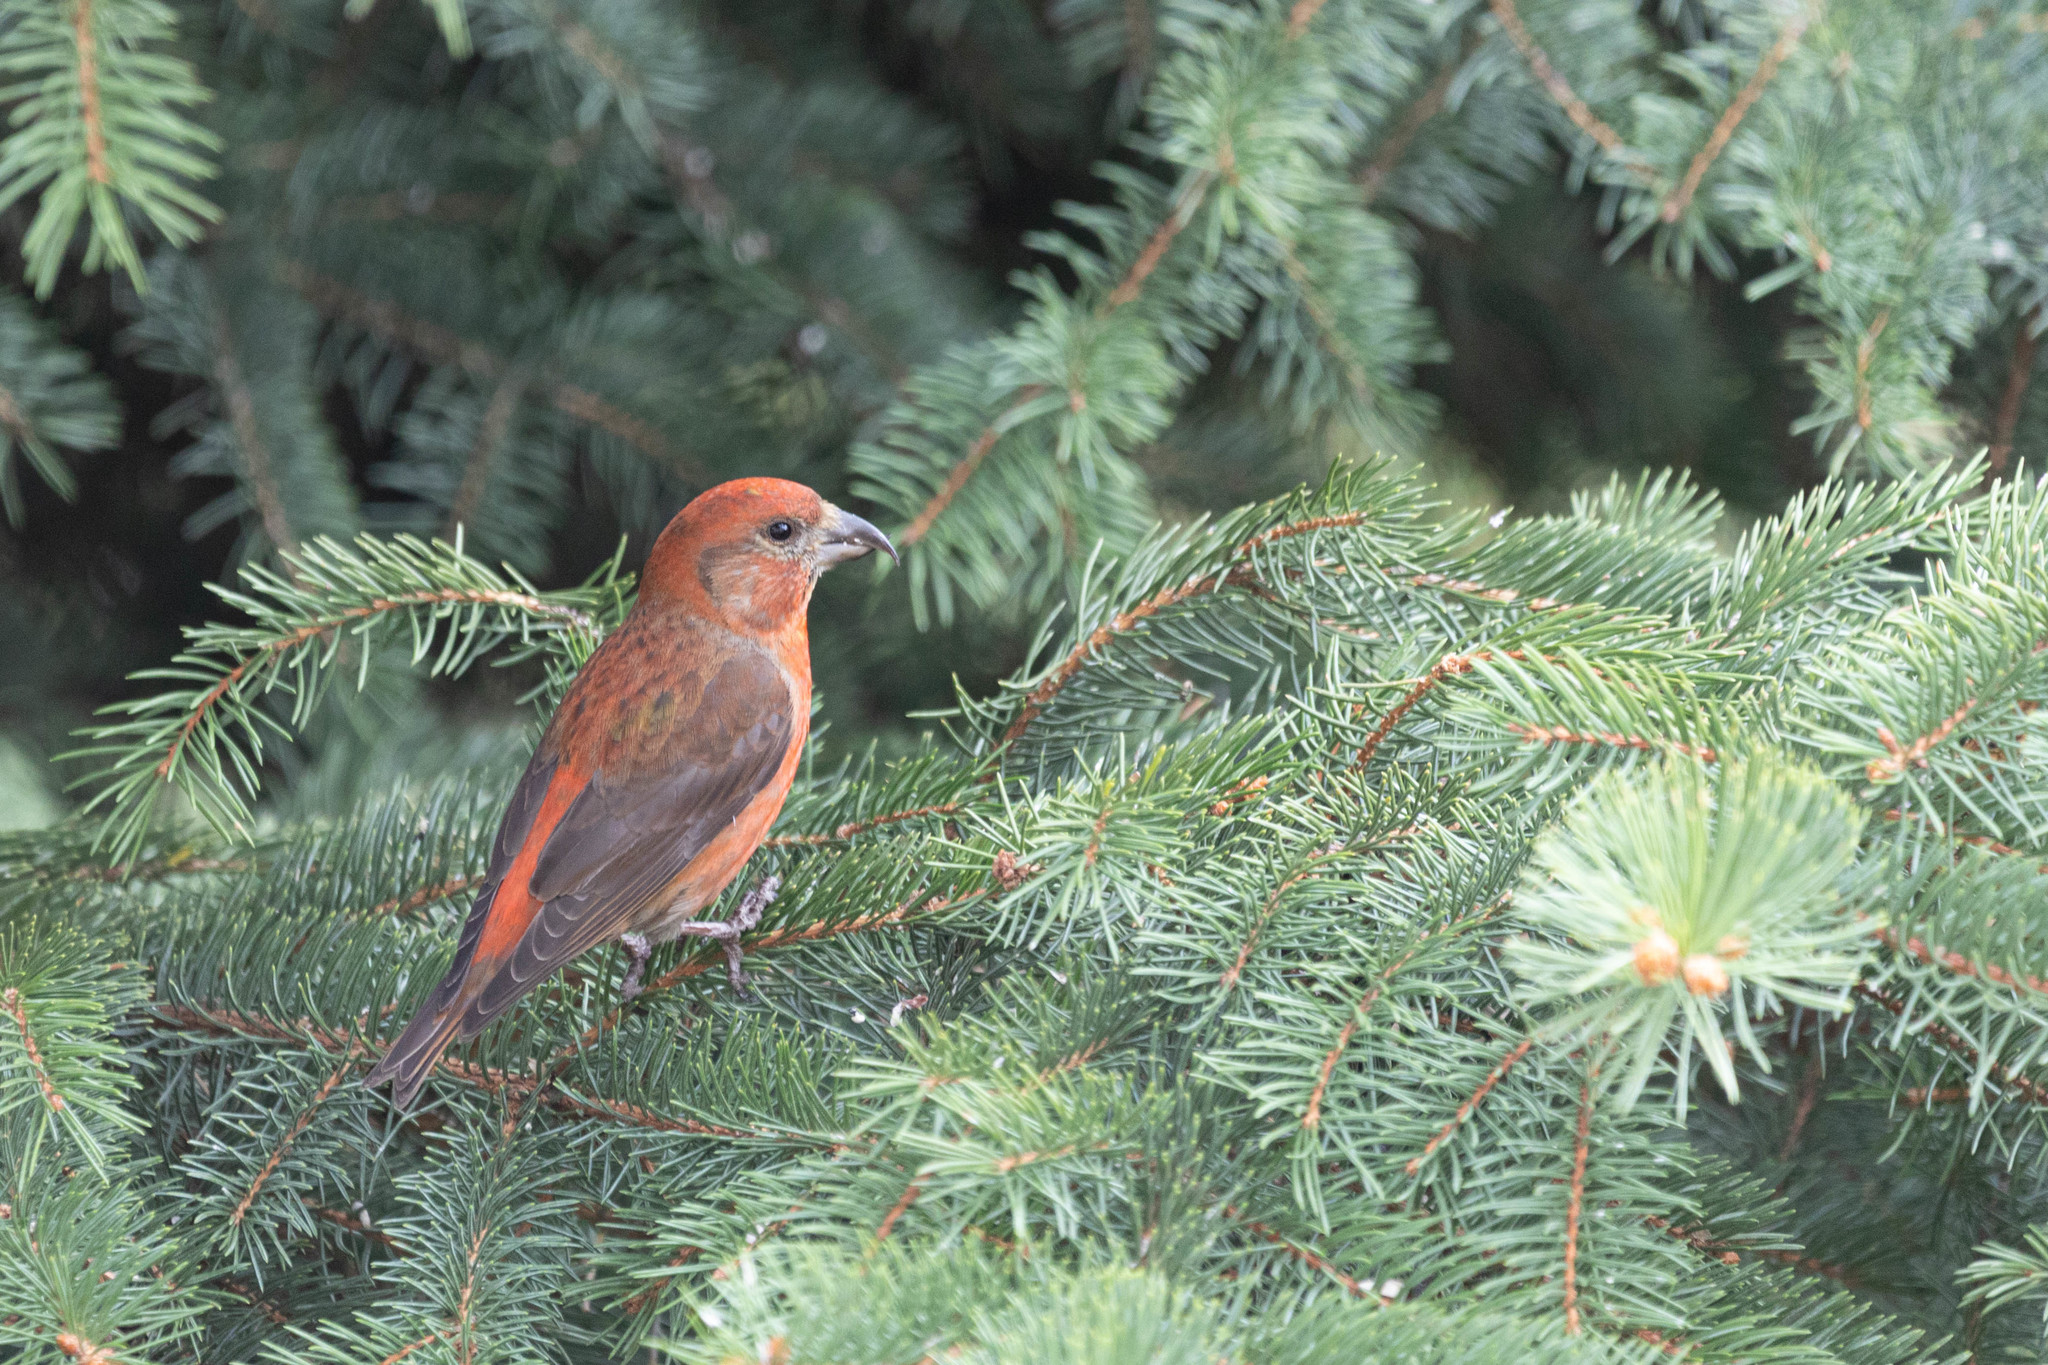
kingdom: Animalia
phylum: Chordata
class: Aves
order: Passeriformes
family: Fringillidae
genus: Loxia
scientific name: Loxia curvirostra
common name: Red crossbill
